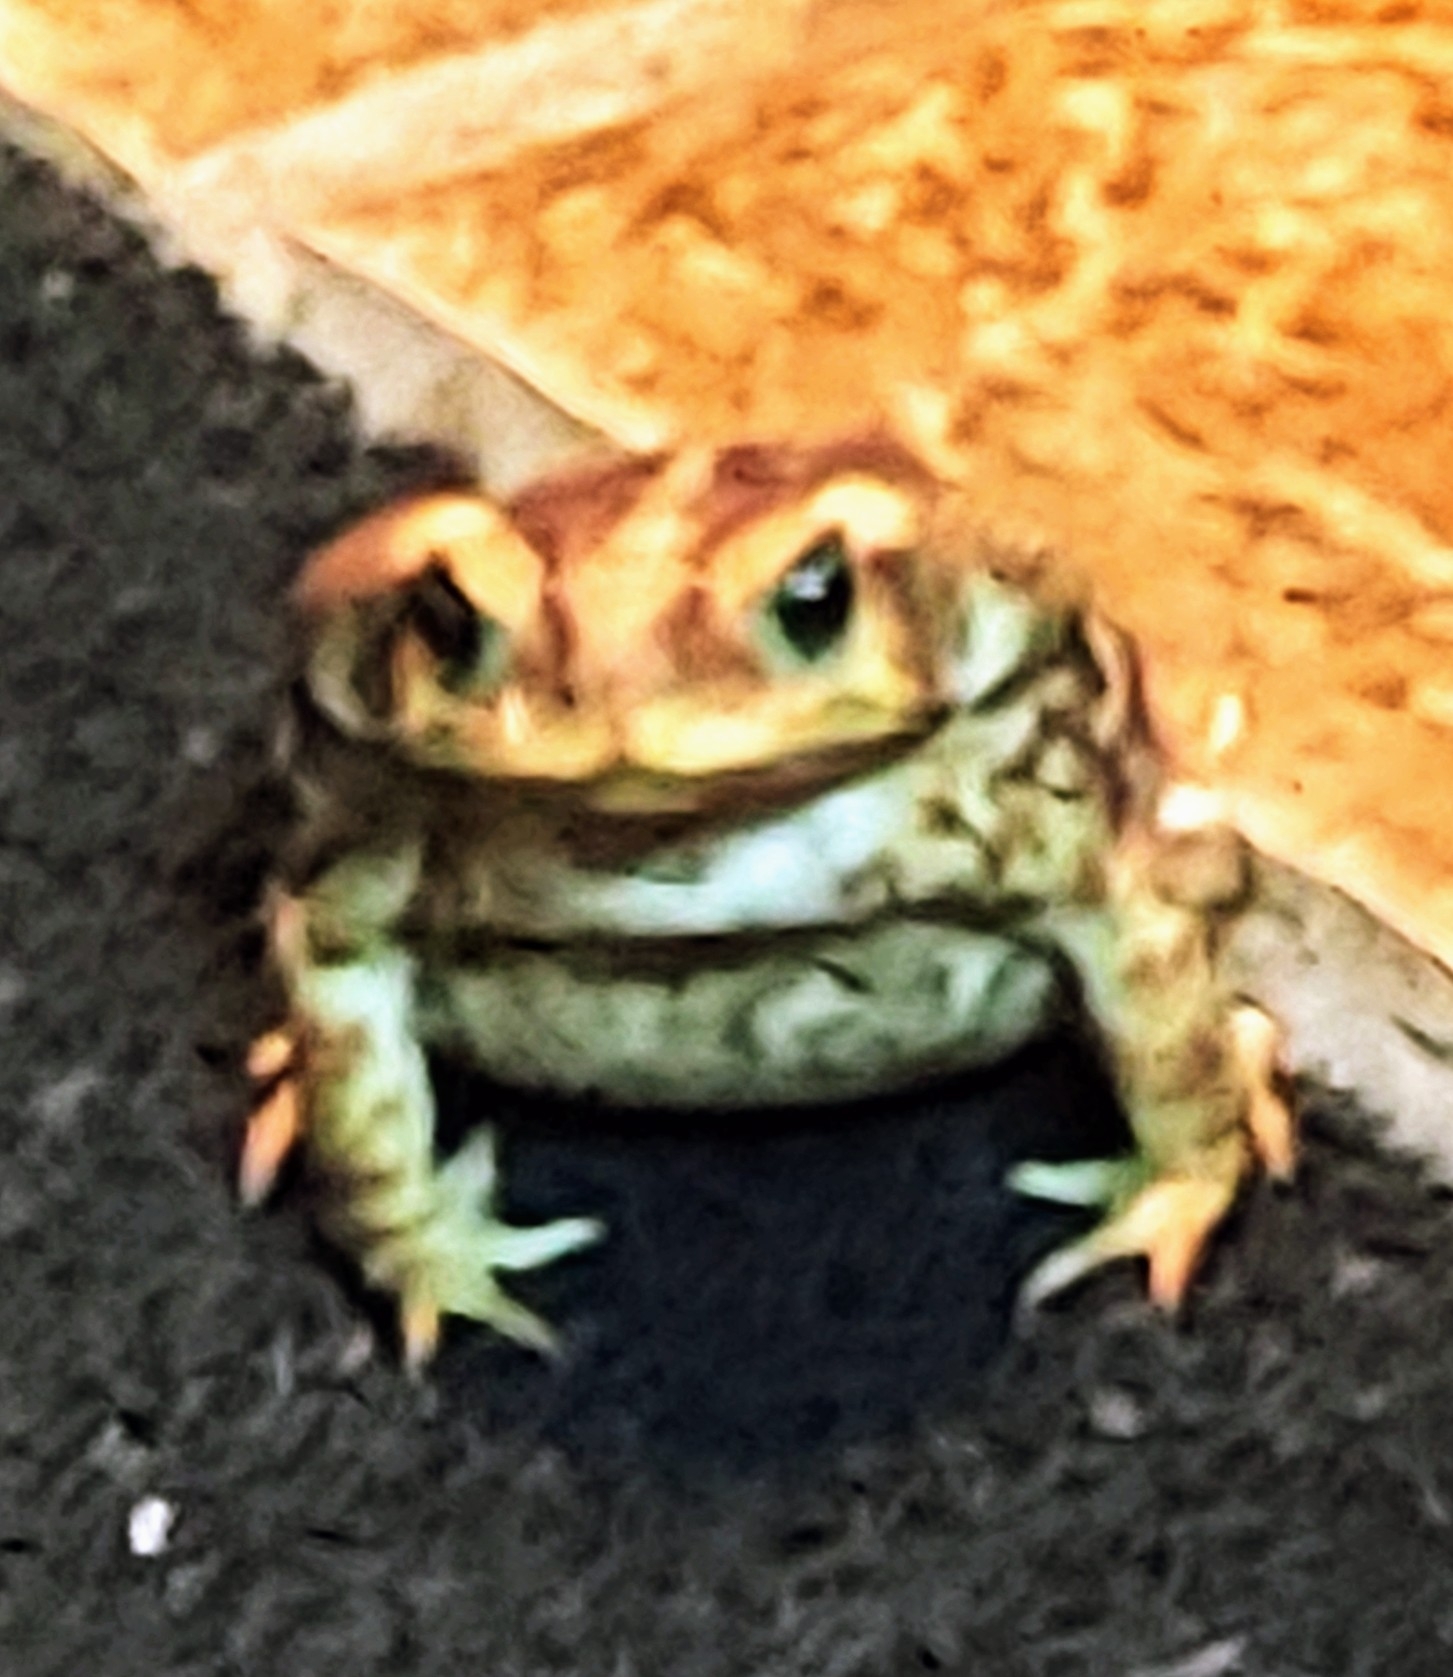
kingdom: Animalia
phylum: Chordata
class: Amphibia
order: Anura
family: Bufonidae
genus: Rhinella
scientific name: Rhinella icterica
